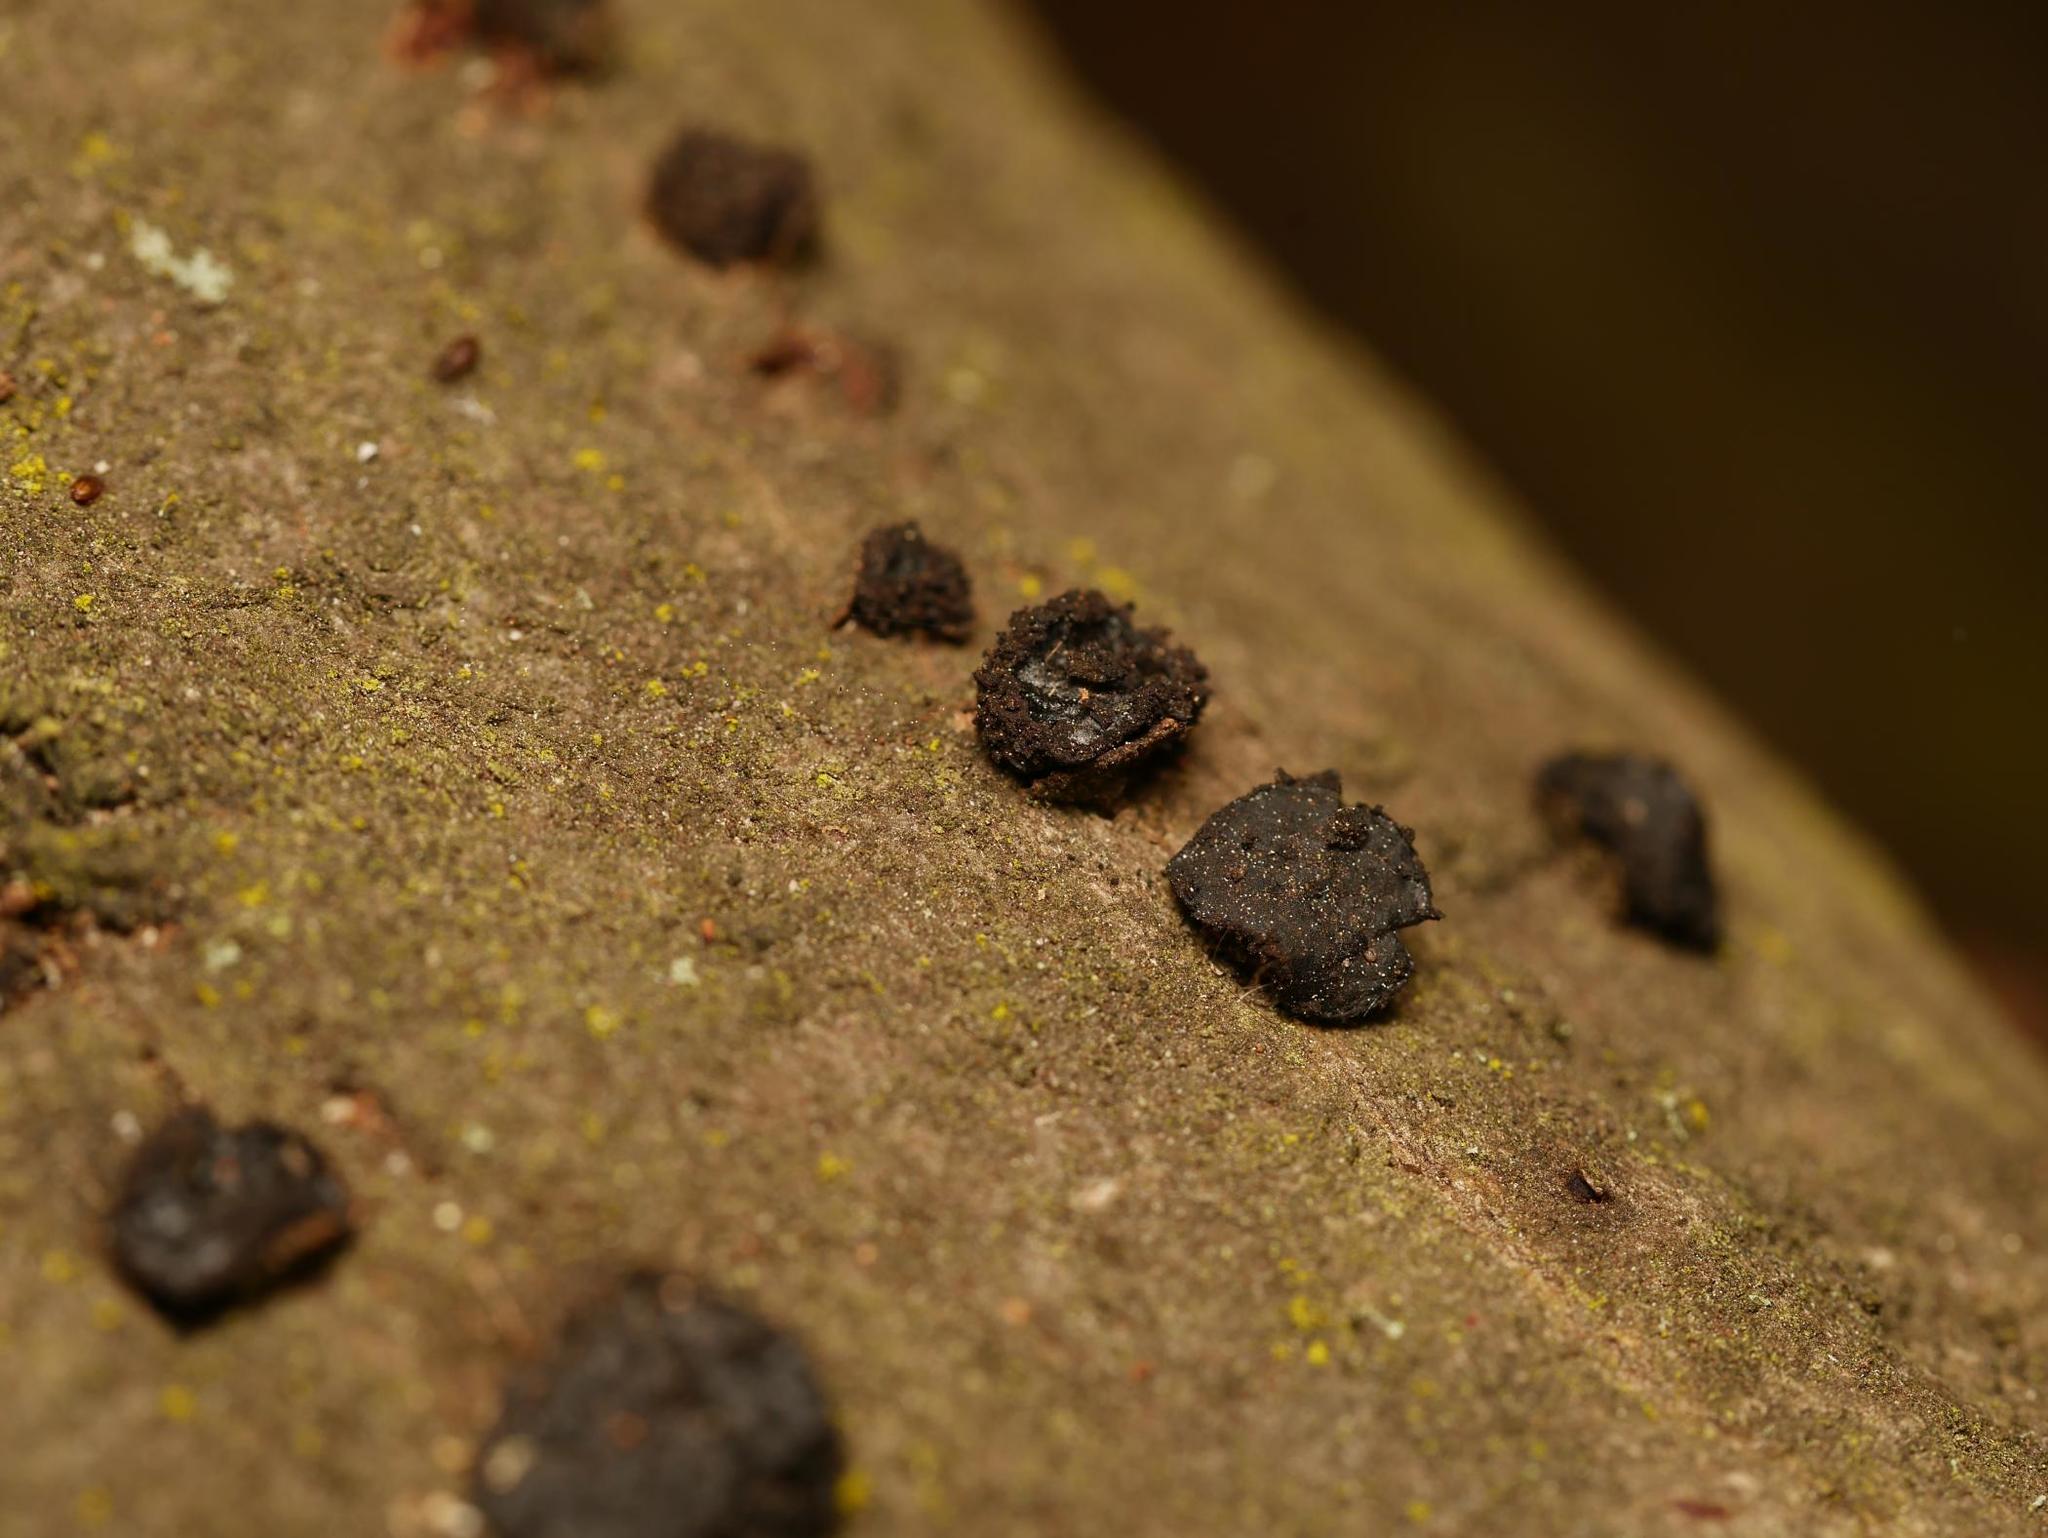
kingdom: Fungi
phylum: Ascomycota
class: Leotiomycetes
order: Phacidiales
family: Phacidiaceae
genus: Bulgaria
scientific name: Bulgaria inquinans
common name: Black bulgar
